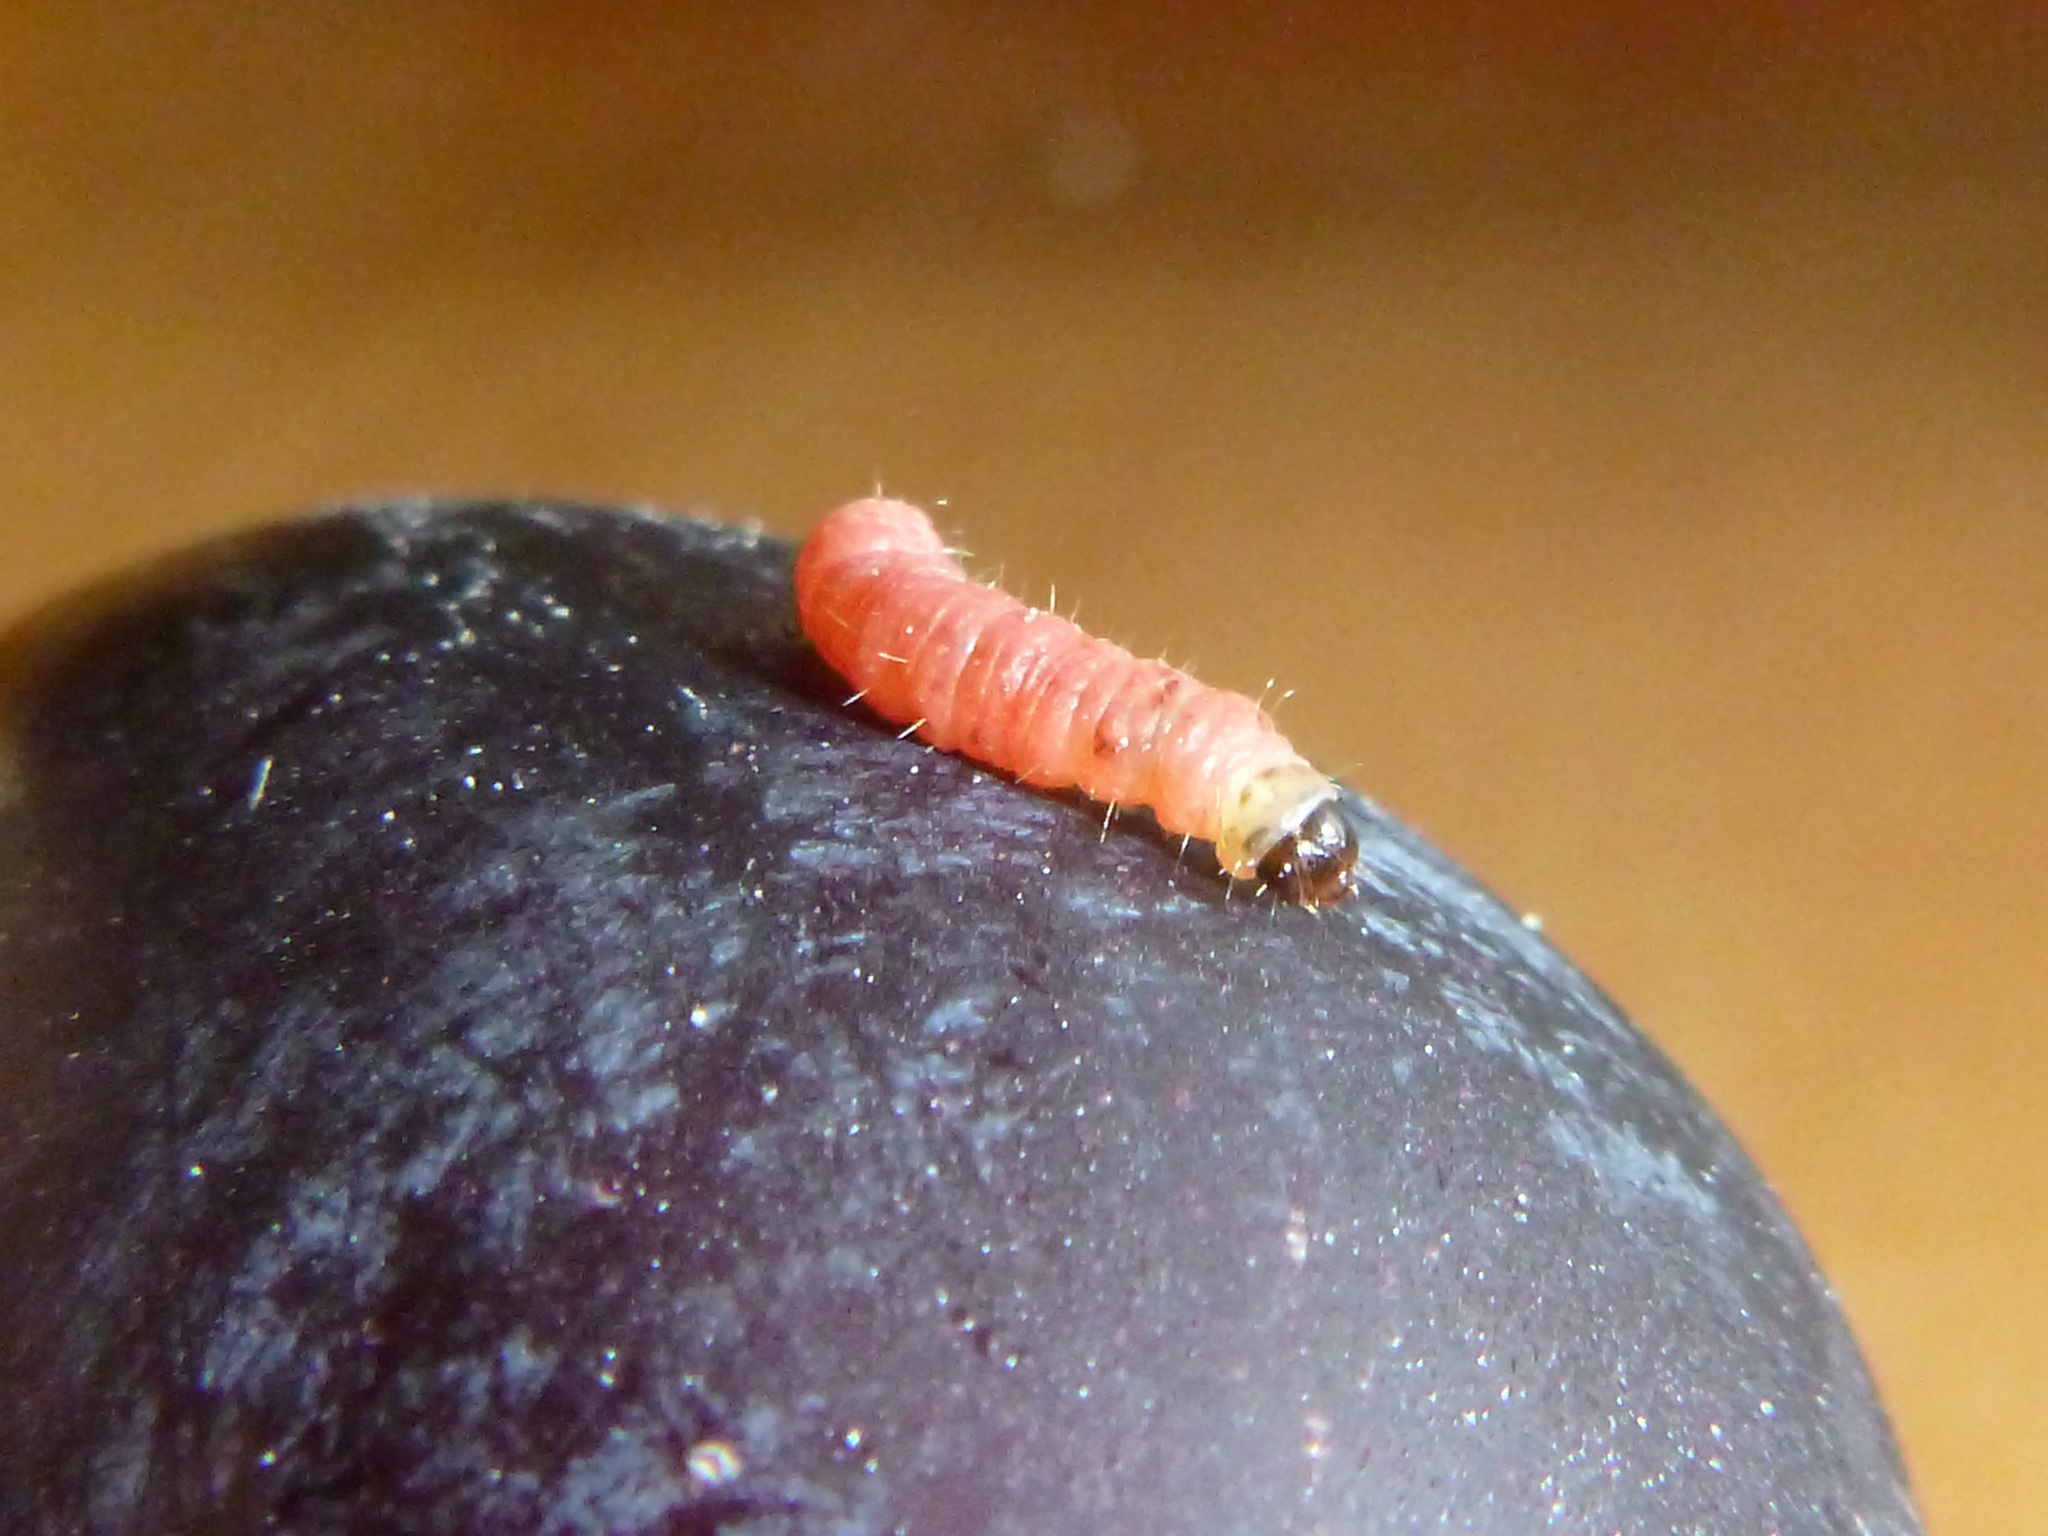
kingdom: Animalia
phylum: Arthropoda
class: Insecta
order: Lepidoptera
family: Noctuidae
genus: Aspila
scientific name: Aspila
